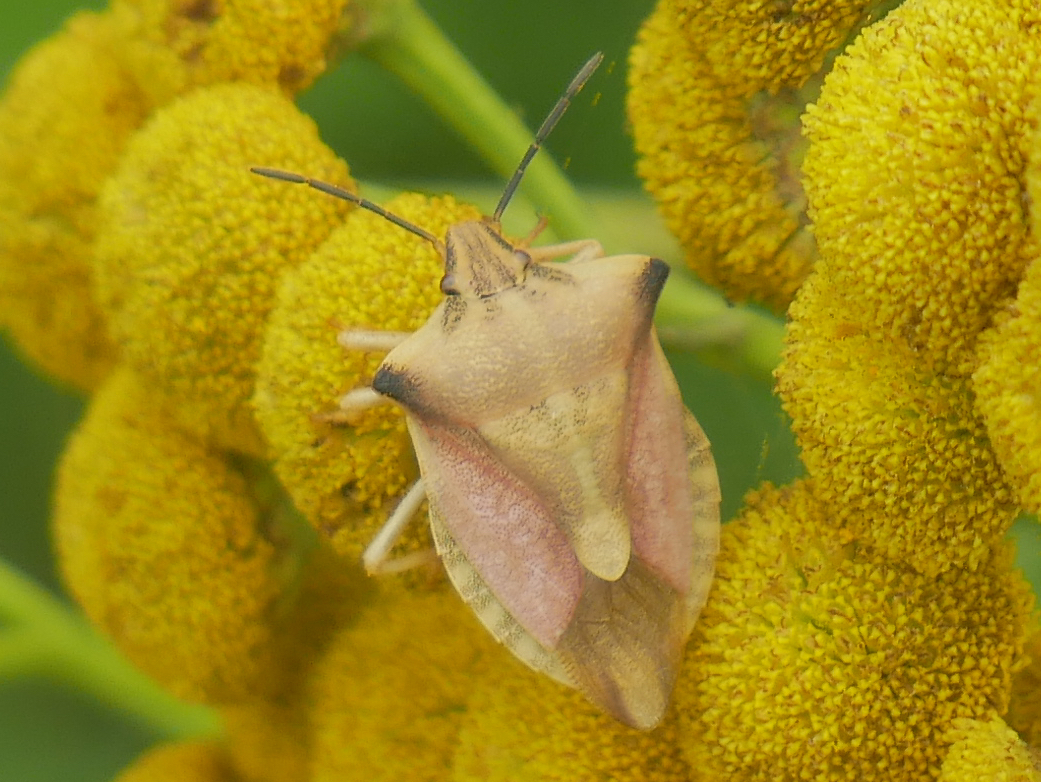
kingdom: Animalia
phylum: Arthropoda
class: Insecta
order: Hemiptera
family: Pentatomidae
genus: Carpocoris
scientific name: Carpocoris fuscispinus
